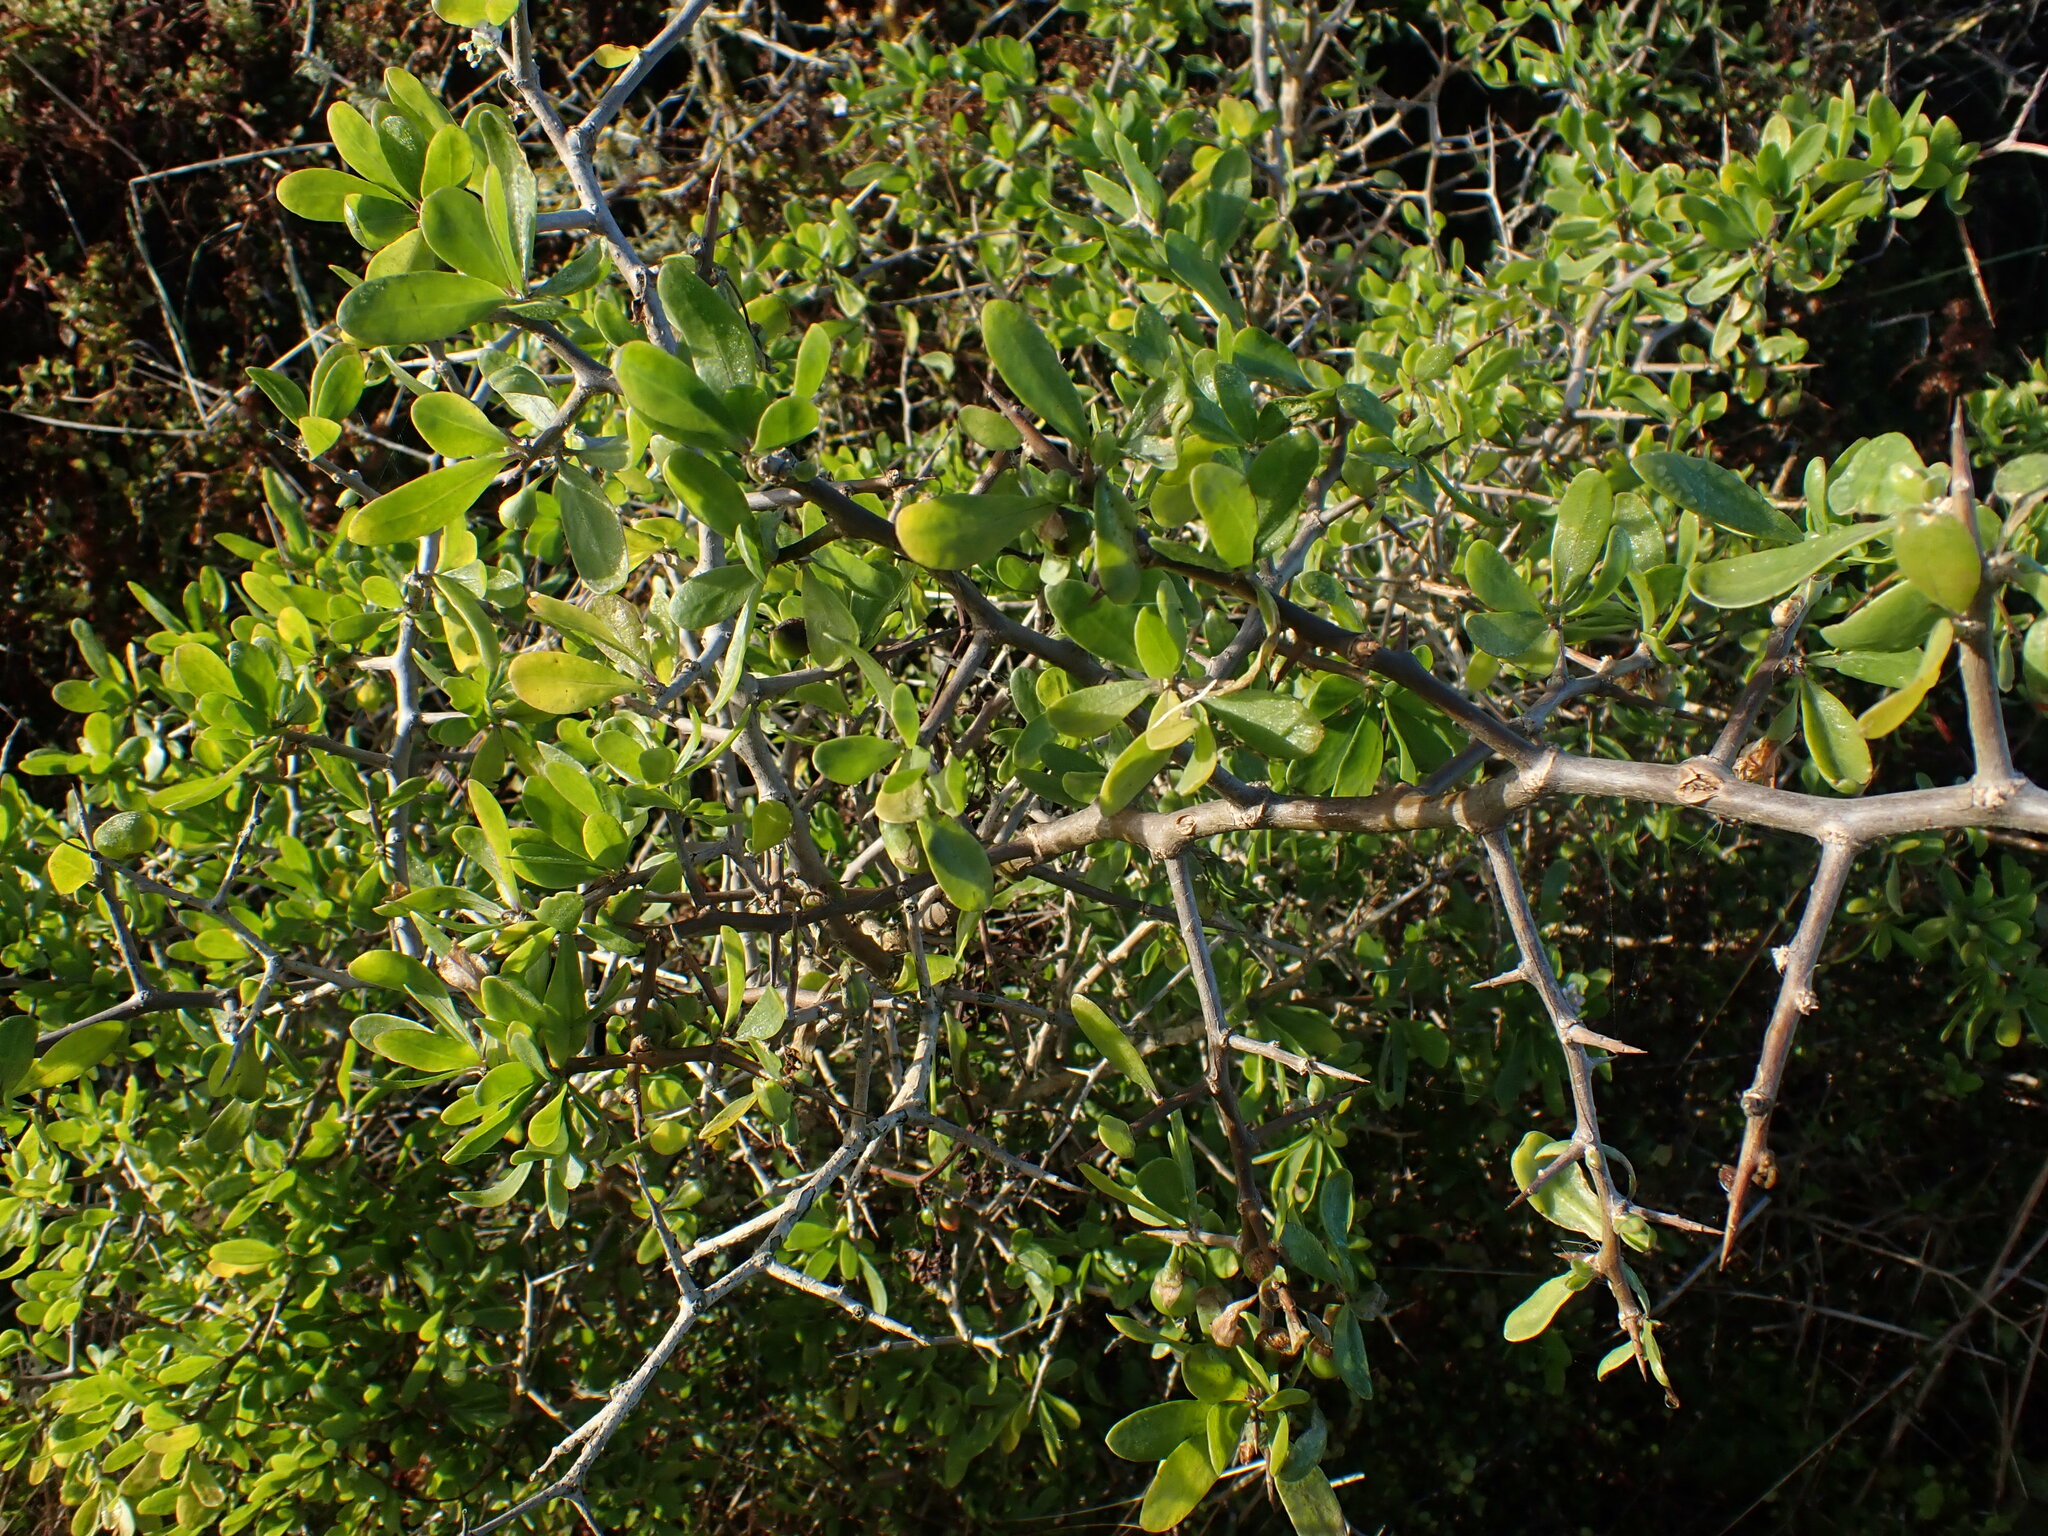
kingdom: Plantae
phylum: Tracheophyta
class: Magnoliopsida
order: Solanales
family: Solanaceae
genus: Lycium
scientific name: Lycium ferocissimum
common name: African boxthorn
